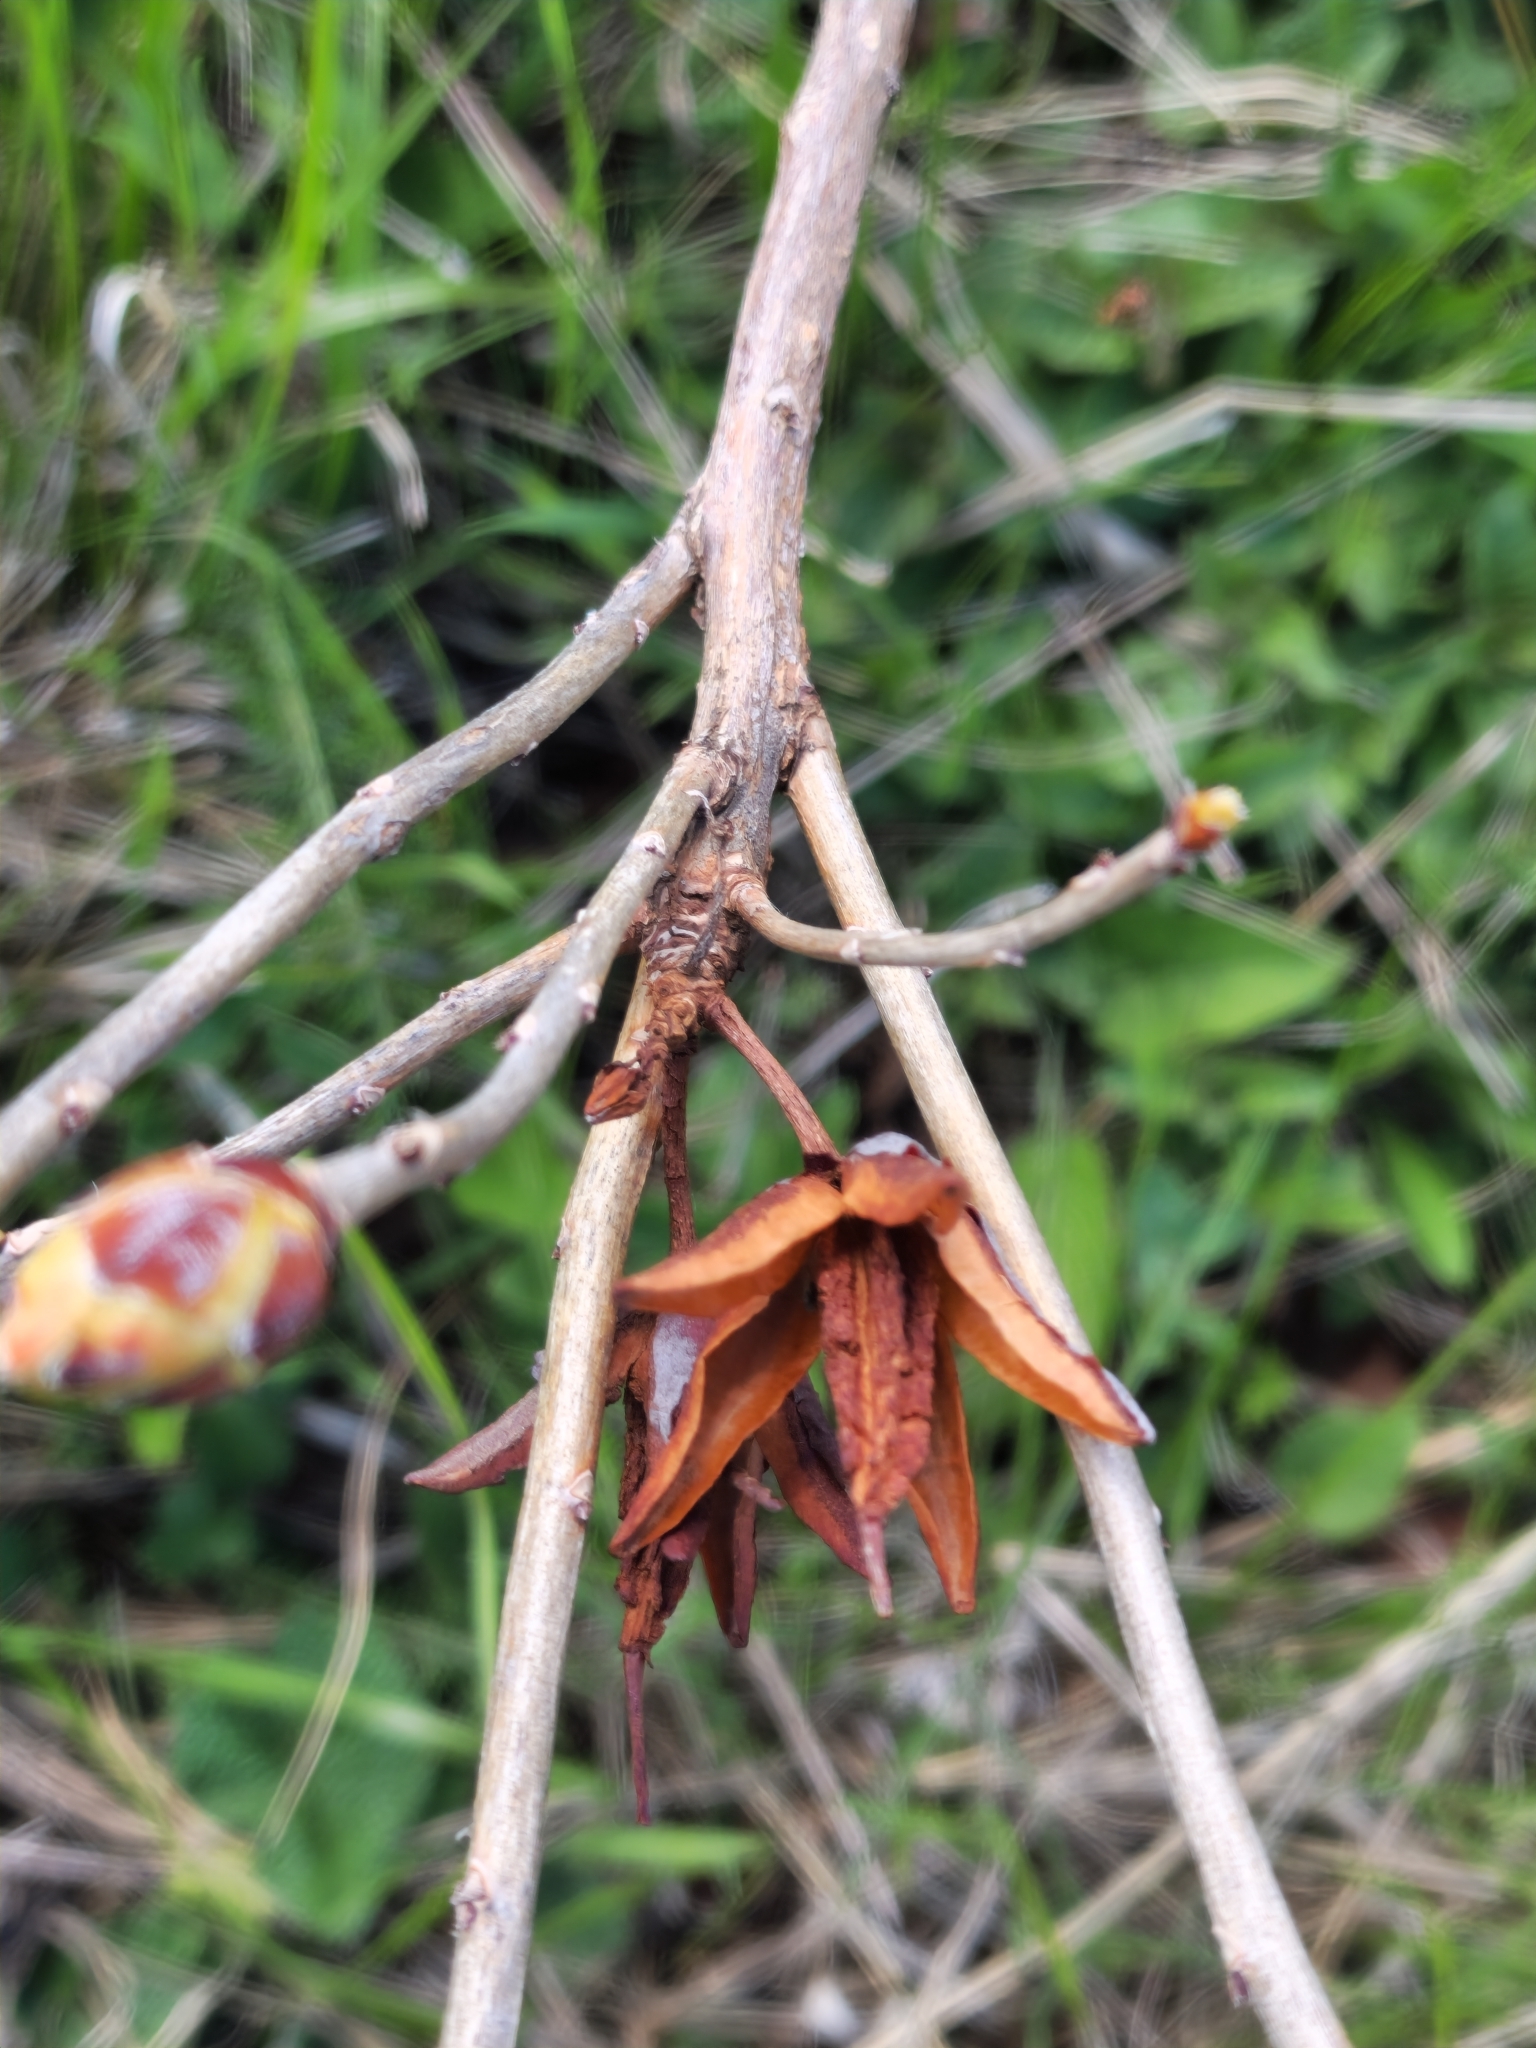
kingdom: Plantae
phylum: Tracheophyta
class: Magnoliopsida
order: Ericales
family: Ericaceae
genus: Rhododendron
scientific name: Rhododendron luteum
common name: Yellow azalea
